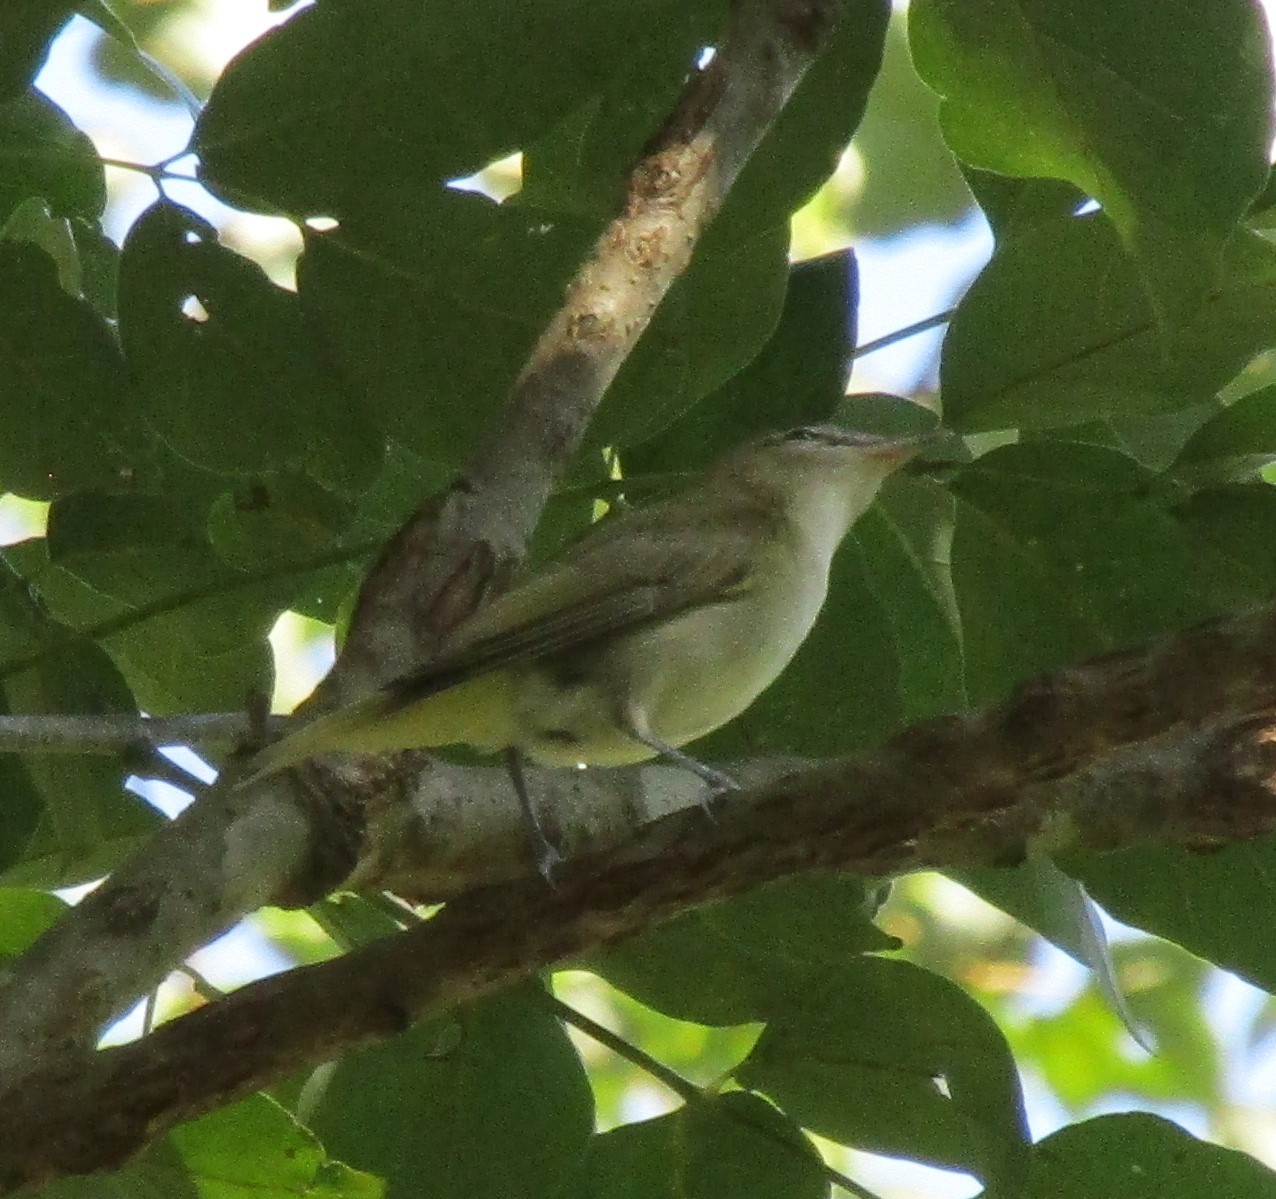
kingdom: Animalia
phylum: Chordata
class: Aves
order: Passeriformes
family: Vireonidae
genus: Vireo
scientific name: Vireo olivaceus
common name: Red-eyed vireo
